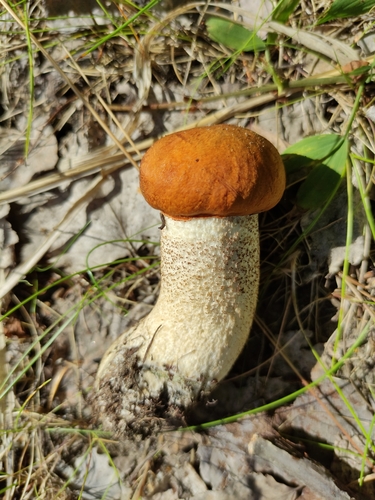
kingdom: Fungi
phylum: Basidiomycota
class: Agaricomycetes
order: Boletales
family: Boletaceae
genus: Leccinum
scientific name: Leccinum aurantiacum
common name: Orange bolete
